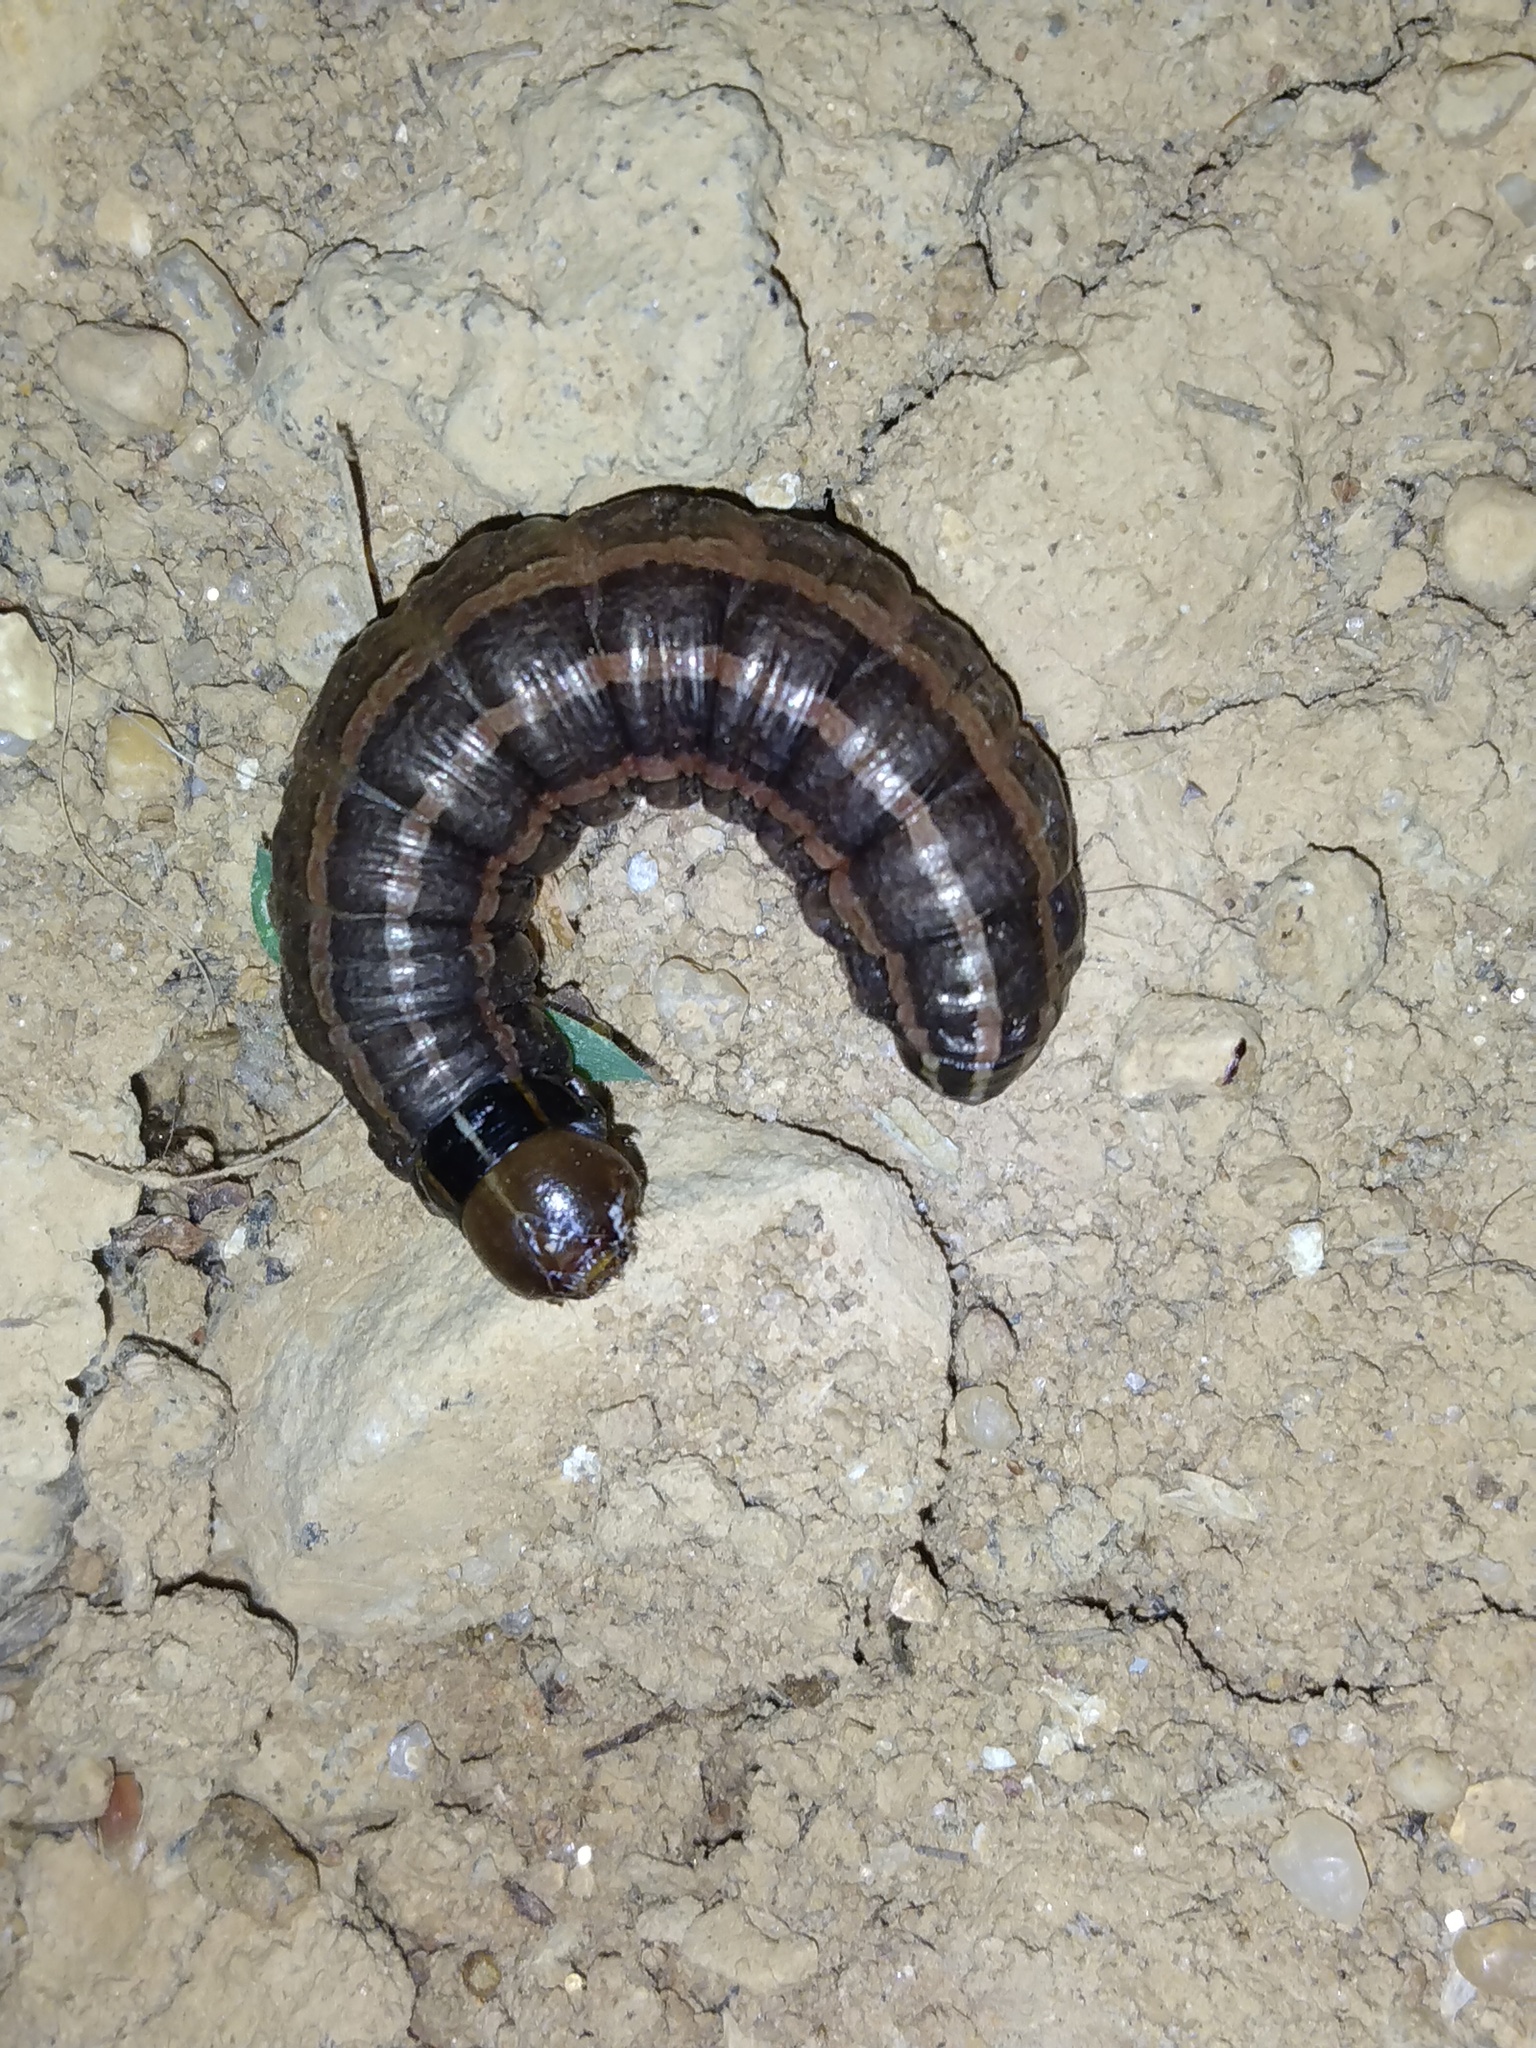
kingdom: Animalia
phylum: Arthropoda
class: Insecta
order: Lepidoptera
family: Noctuidae
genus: Nephelodes
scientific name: Nephelodes minians
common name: Bronzed cutworm
